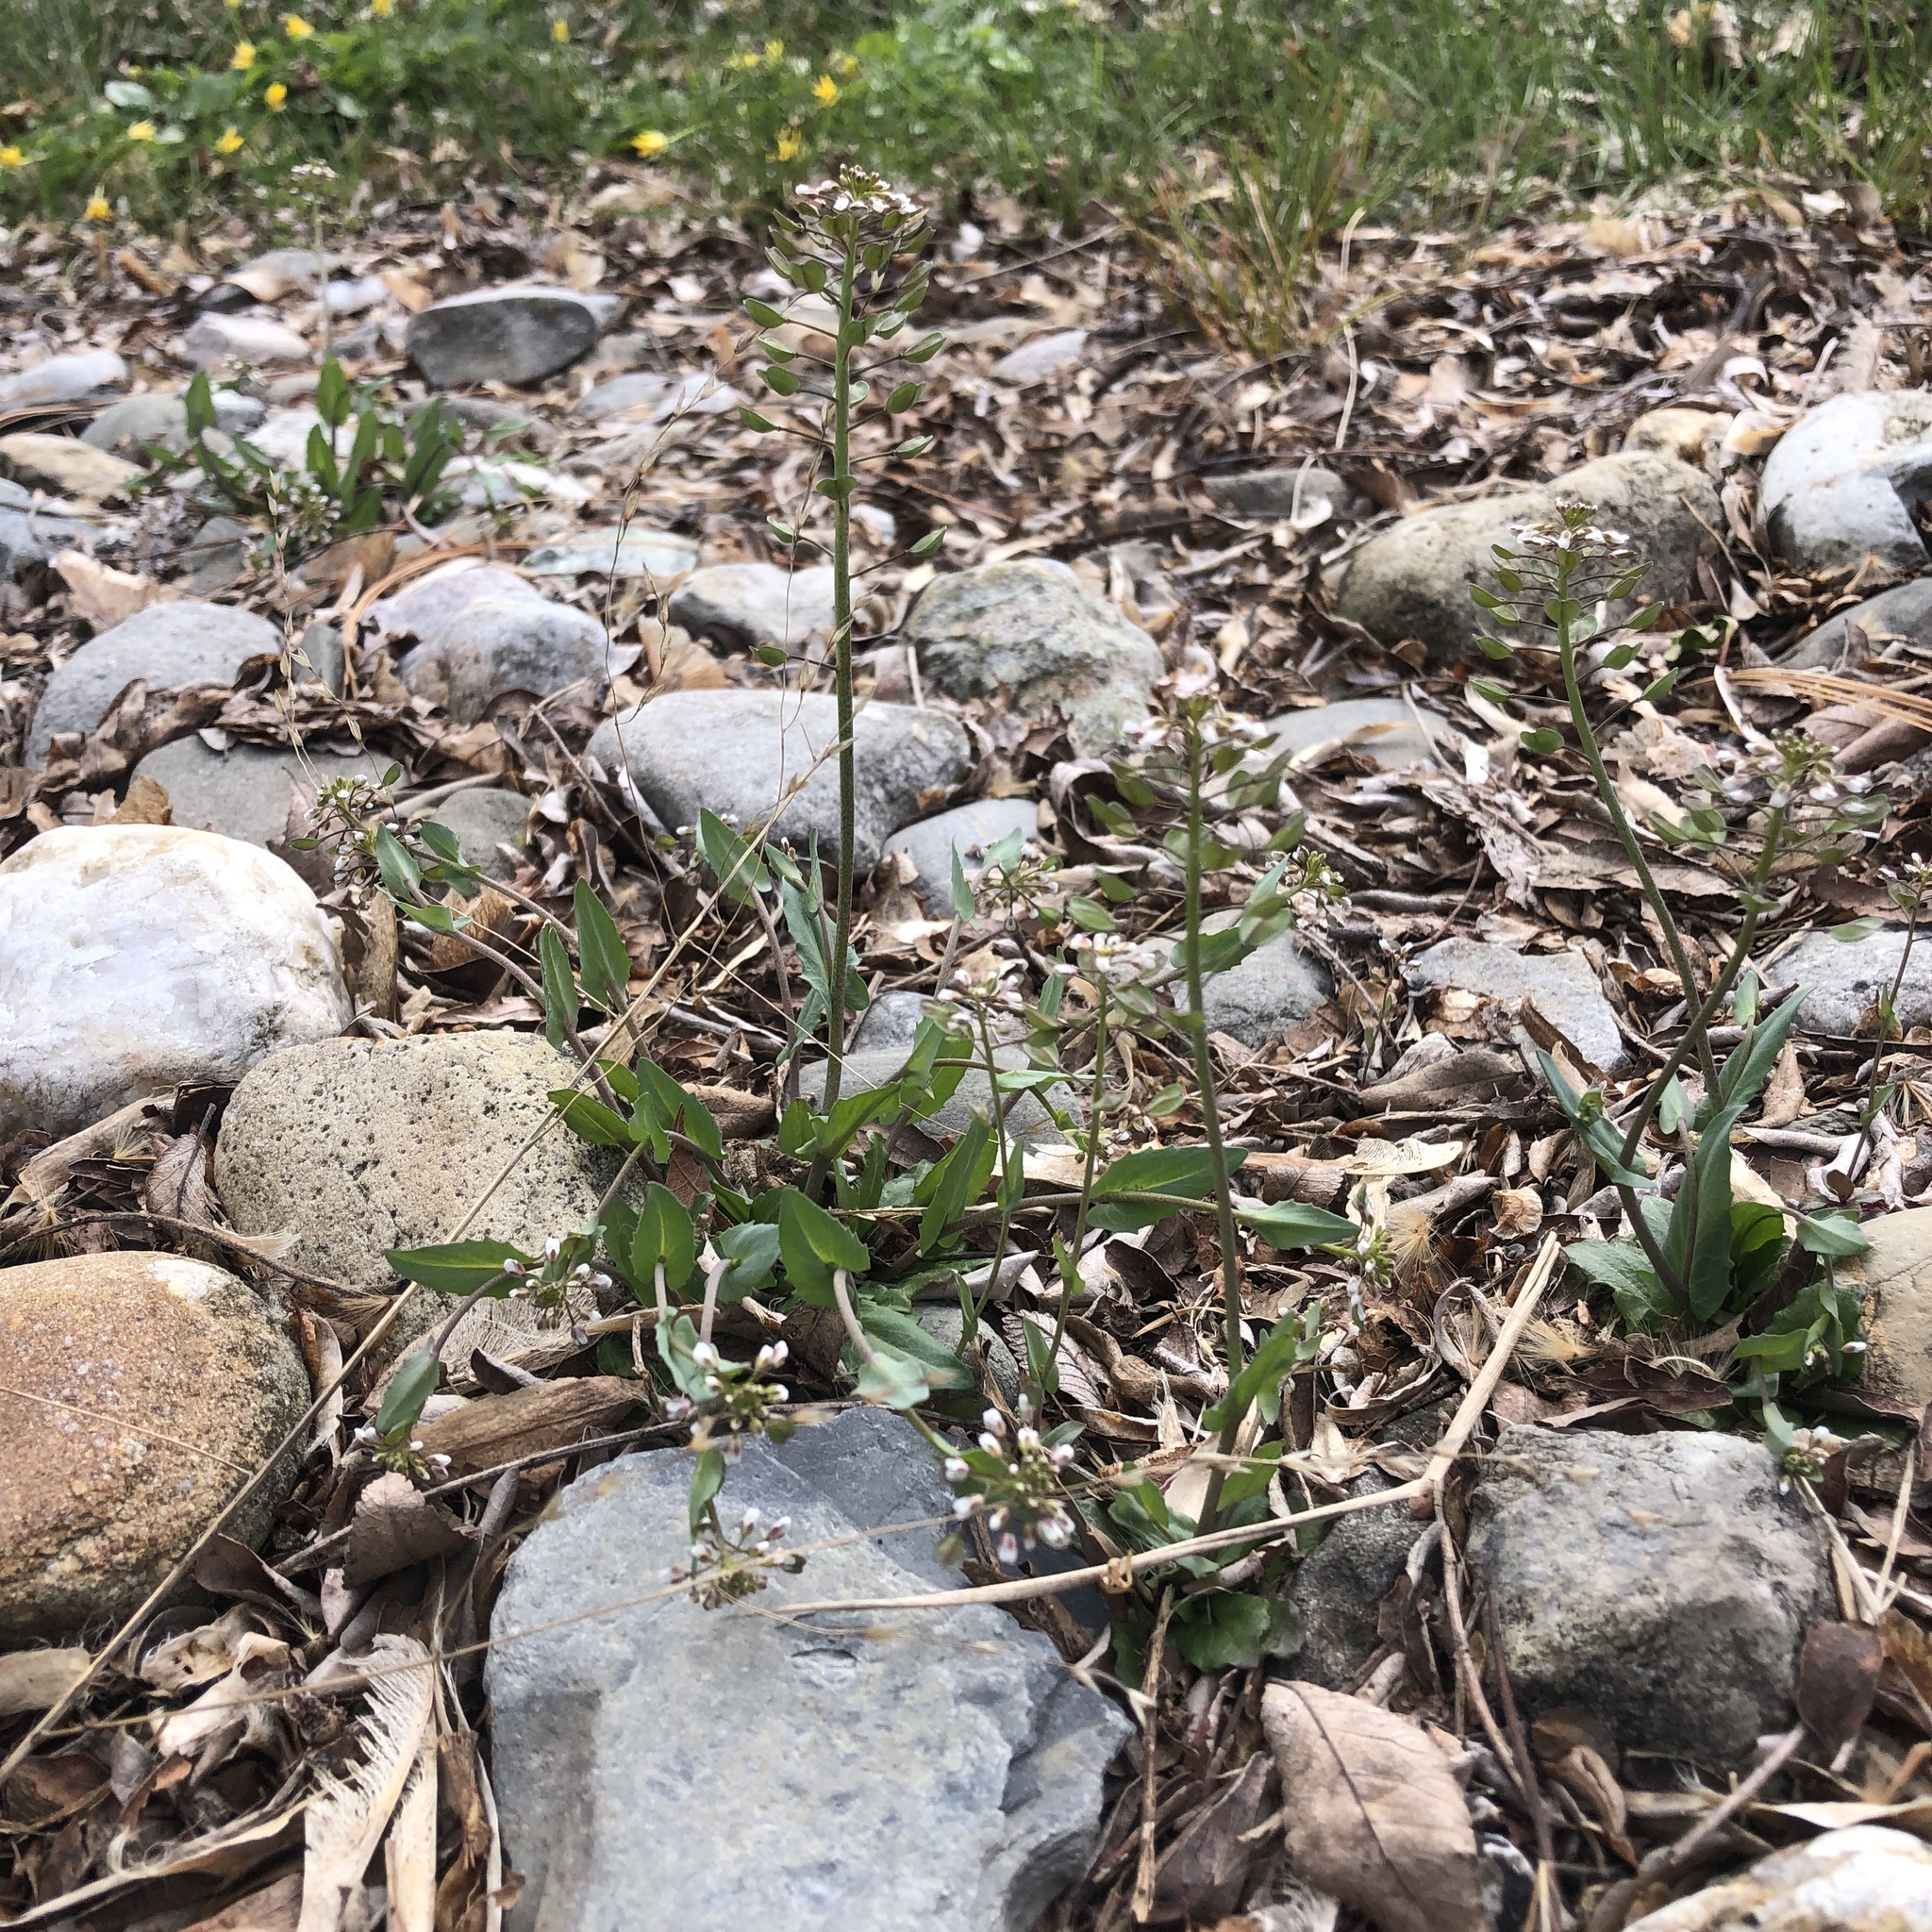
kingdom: Plantae
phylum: Tracheophyta
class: Magnoliopsida
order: Brassicales
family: Brassicaceae
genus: Noccaea
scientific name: Noccaea perfoliata
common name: Perfoliate pennycress
